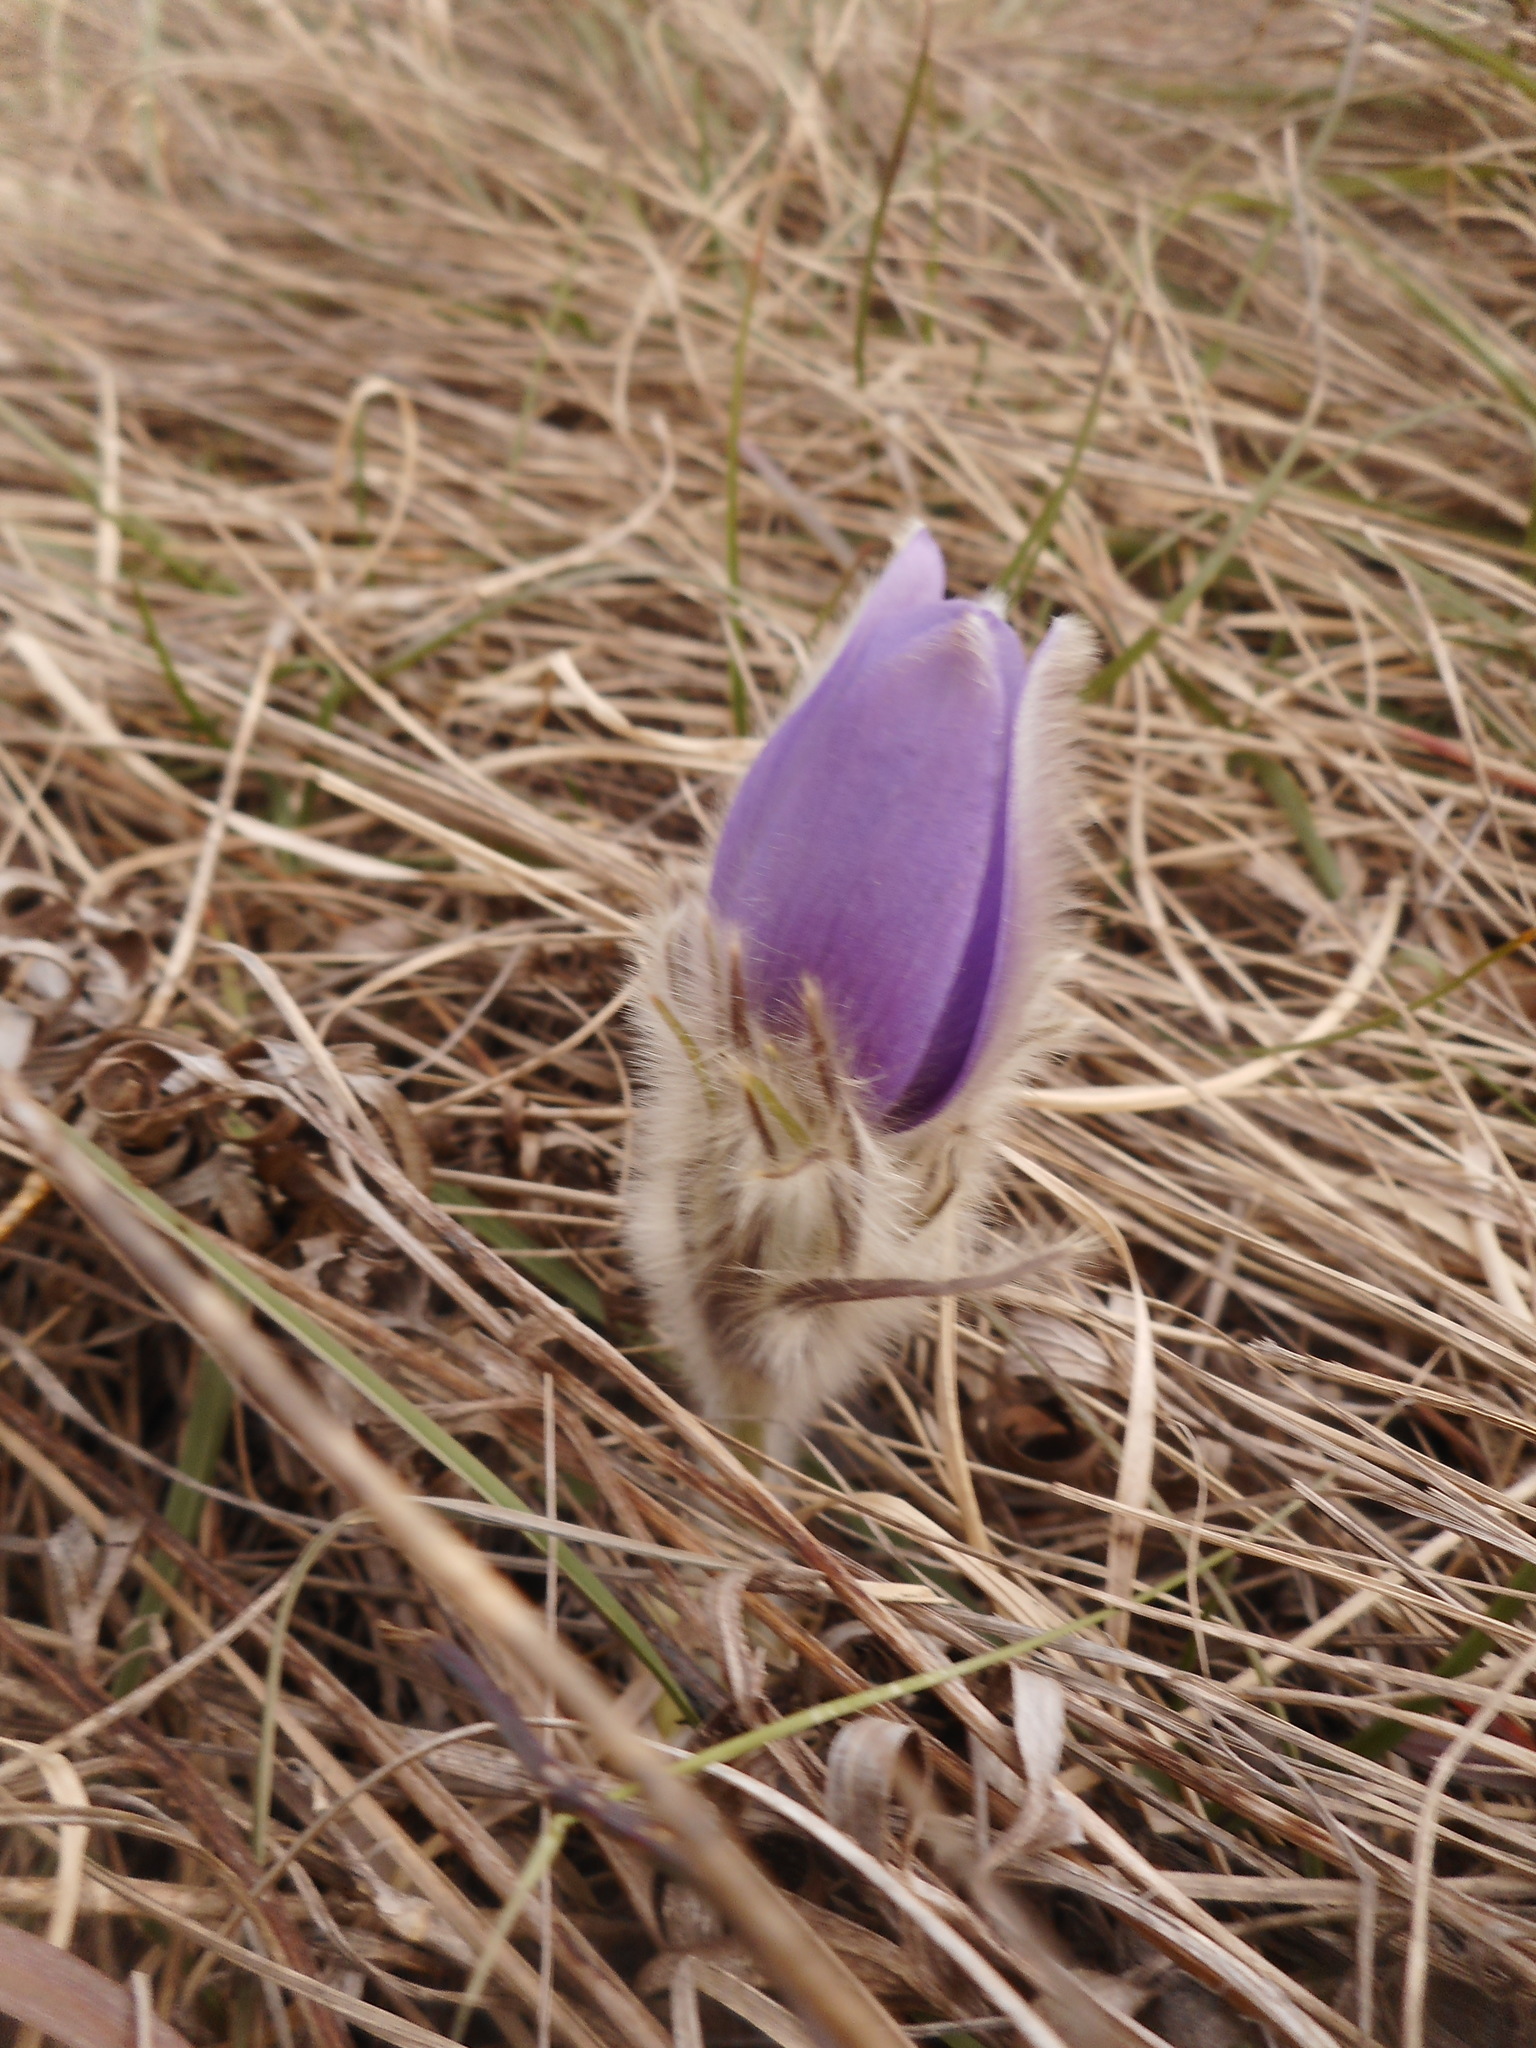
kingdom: Plantae
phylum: Tracheophyta
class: Magnoliopsida
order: Ranunculales
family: Ranunculaceae
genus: Pulsatilla
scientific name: Pulsatilla grandis
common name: Greater pasque flower
